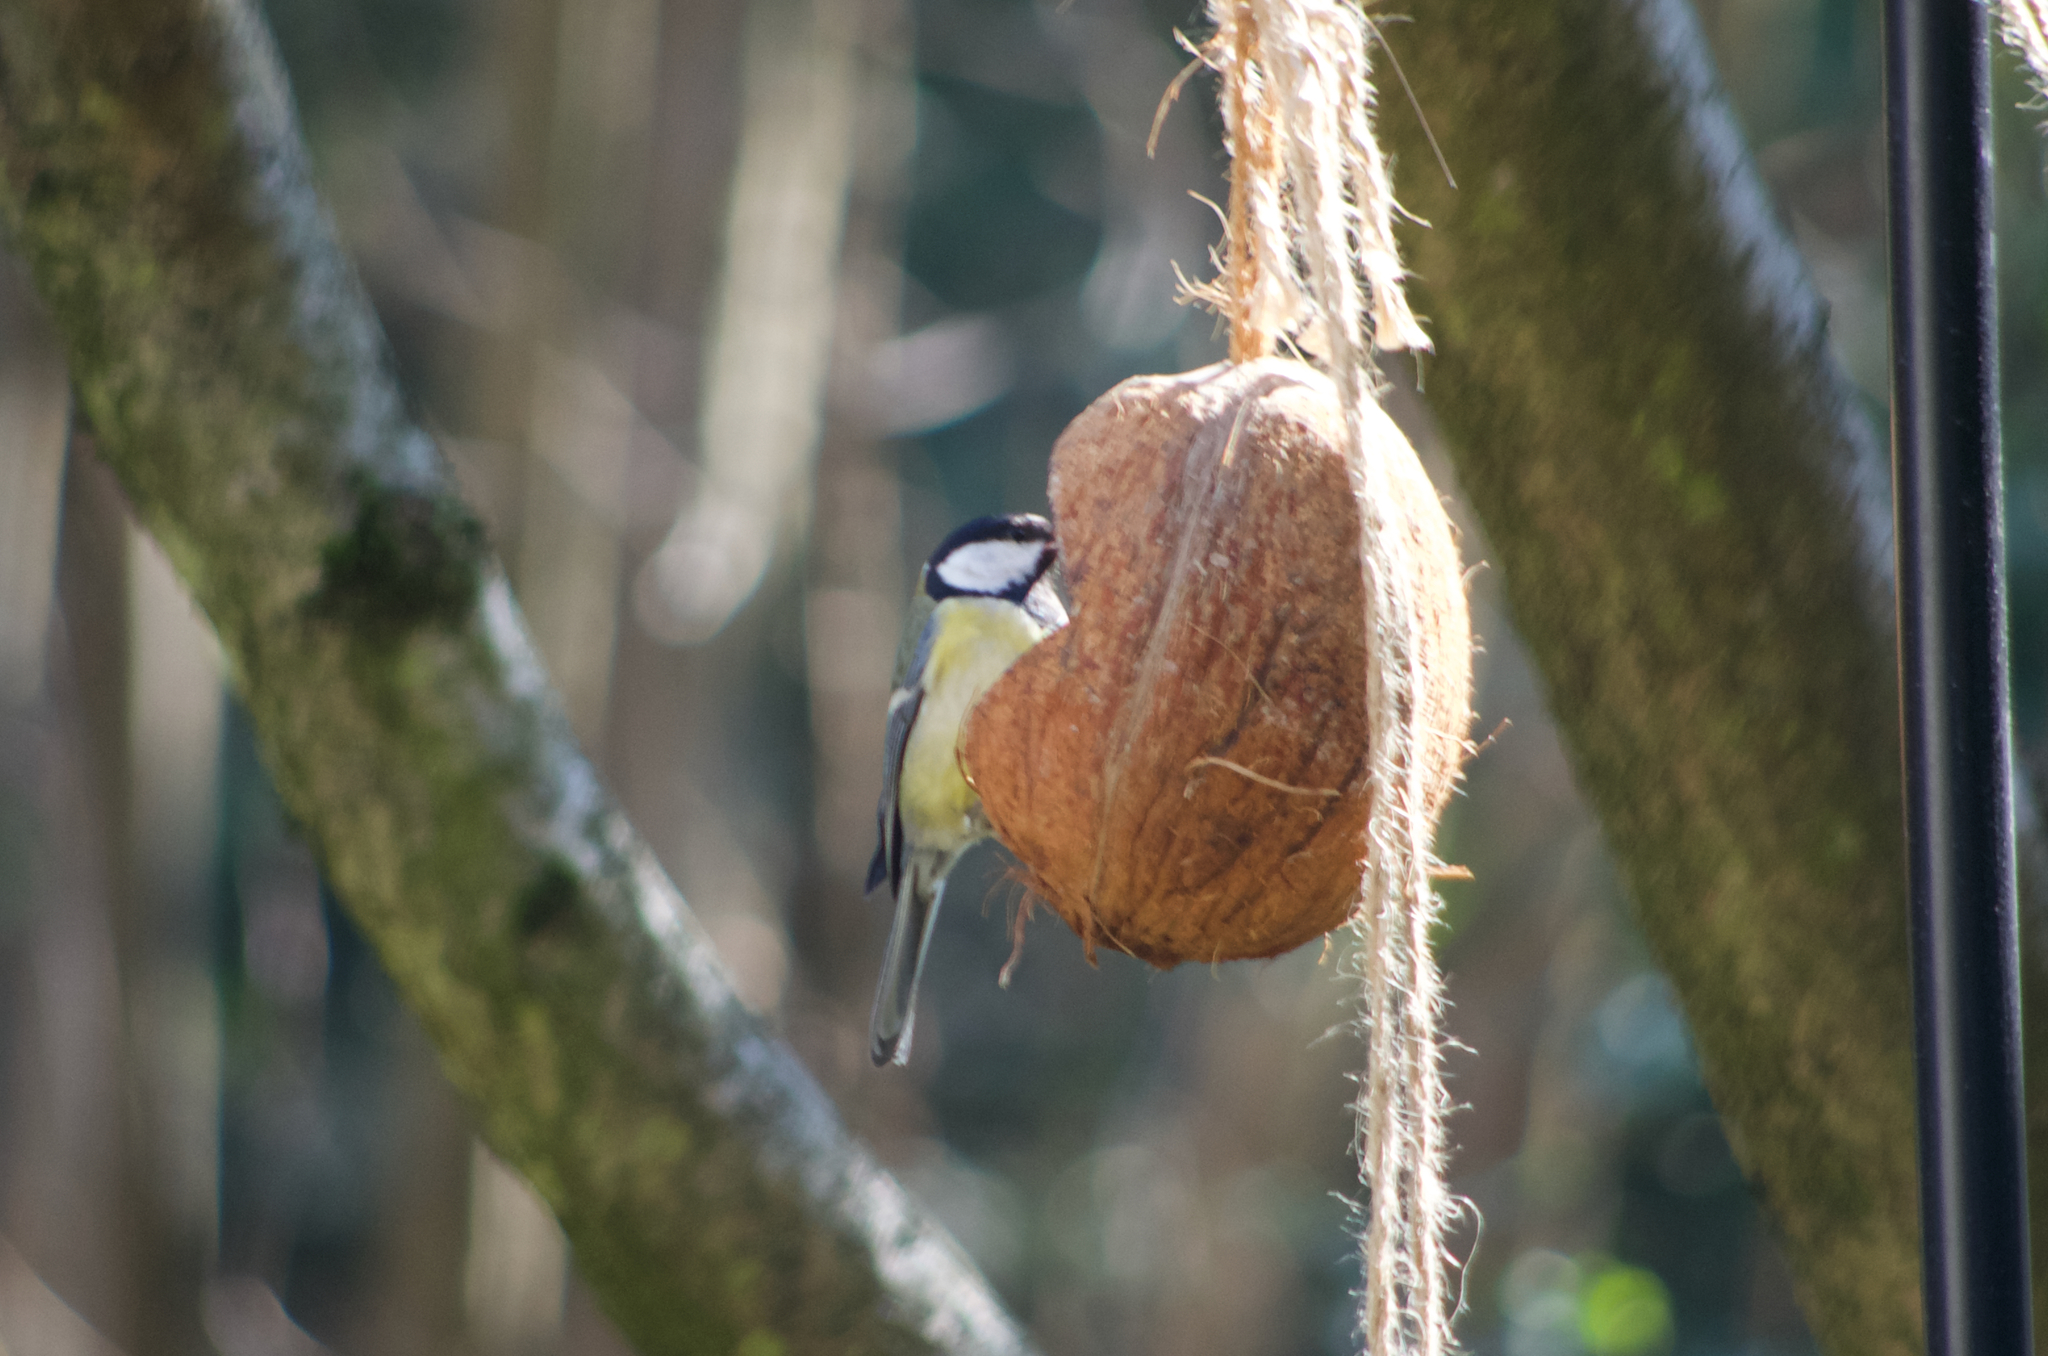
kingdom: Animalia
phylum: Chordata
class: Aves
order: Passeriformes
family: Paridae
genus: Parus
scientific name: Parus major
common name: Great tit
